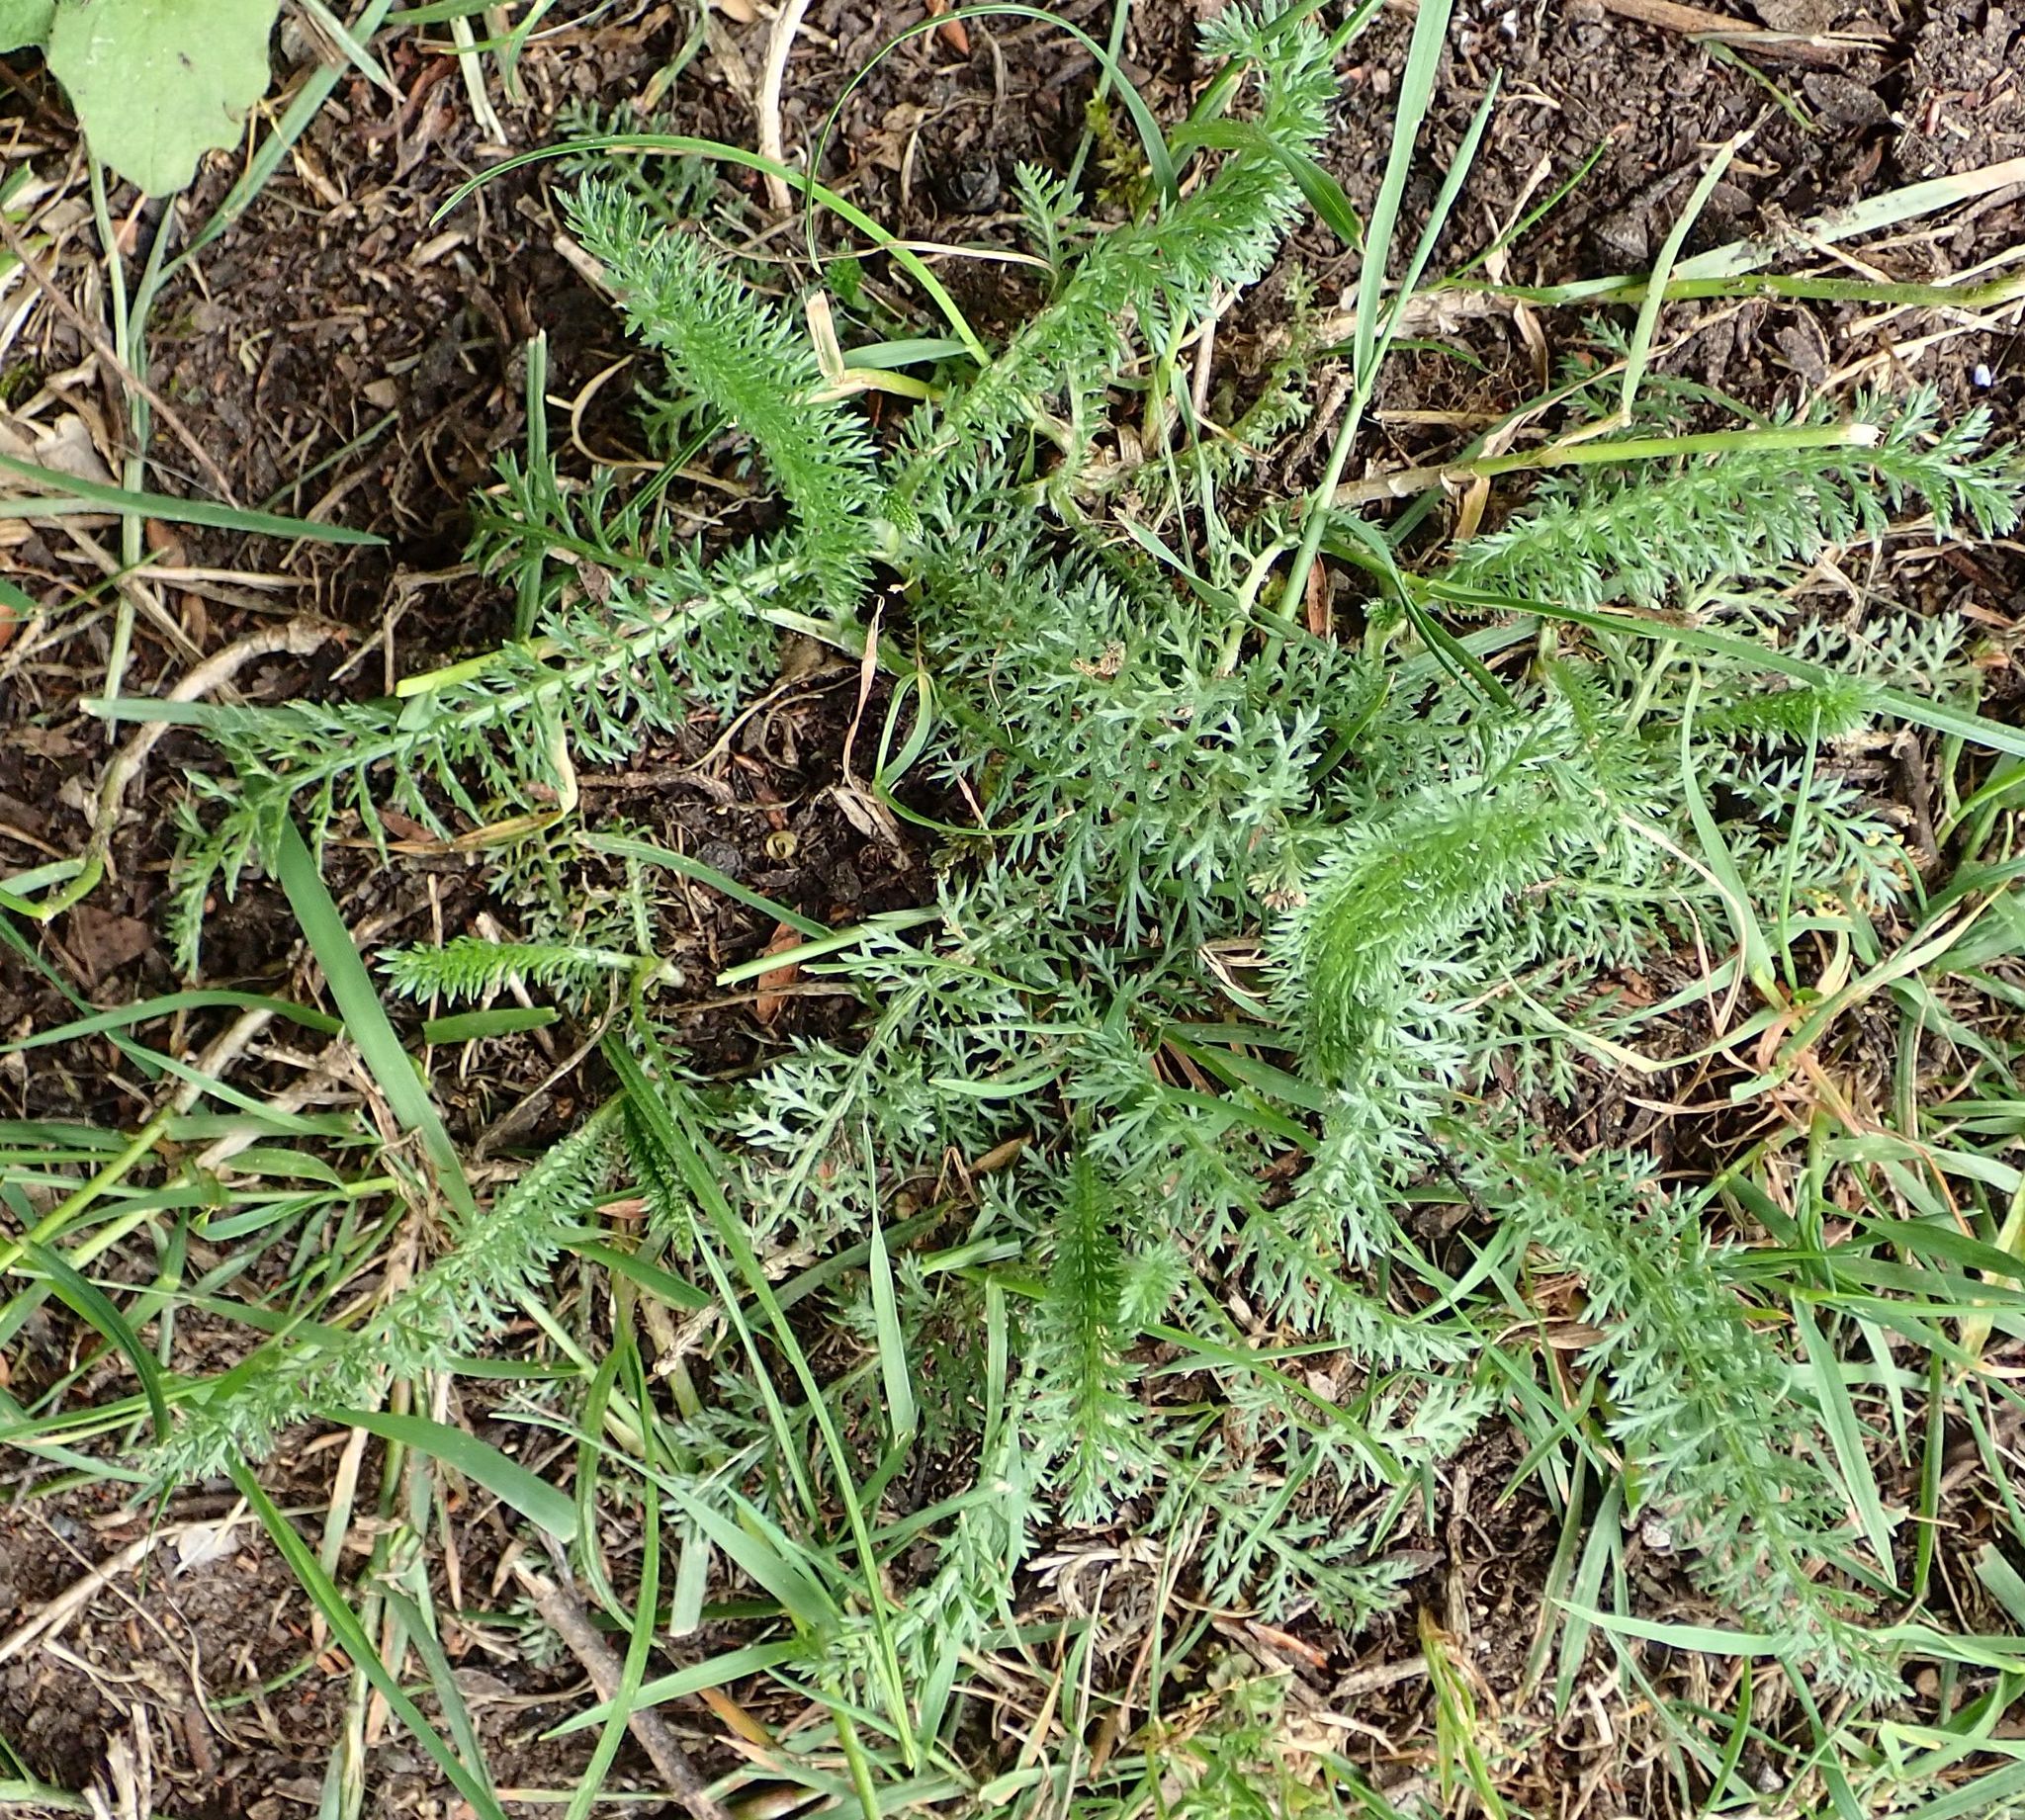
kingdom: Plantae
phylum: Tracheophyta
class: Magnoliopsida
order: Asterales
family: Asteraceae
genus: Achillea
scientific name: Achillea millefolium
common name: Yarrow
